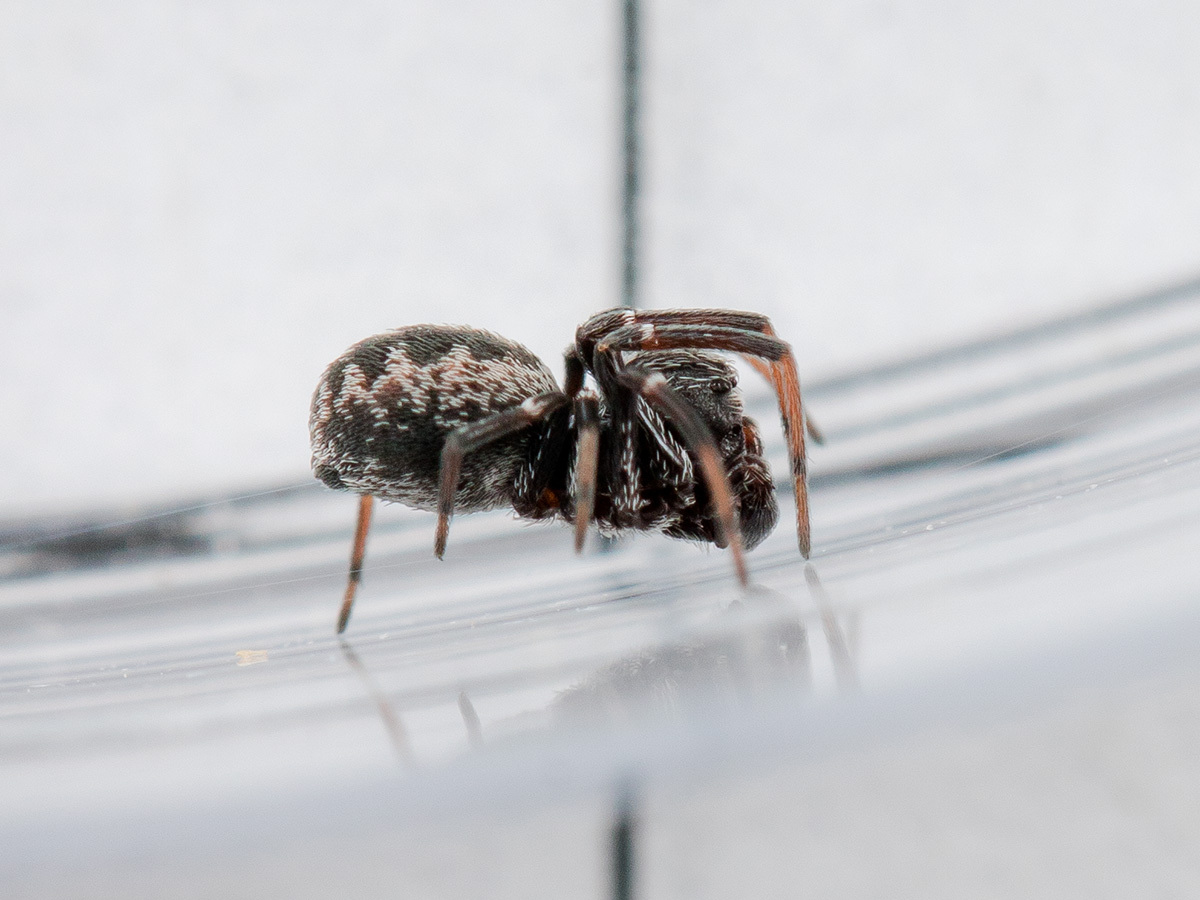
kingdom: Animalia
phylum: Arthropoda
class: Arachnida
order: Araneae
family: Dictynidae
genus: Brigittea
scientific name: Brigittea latens
